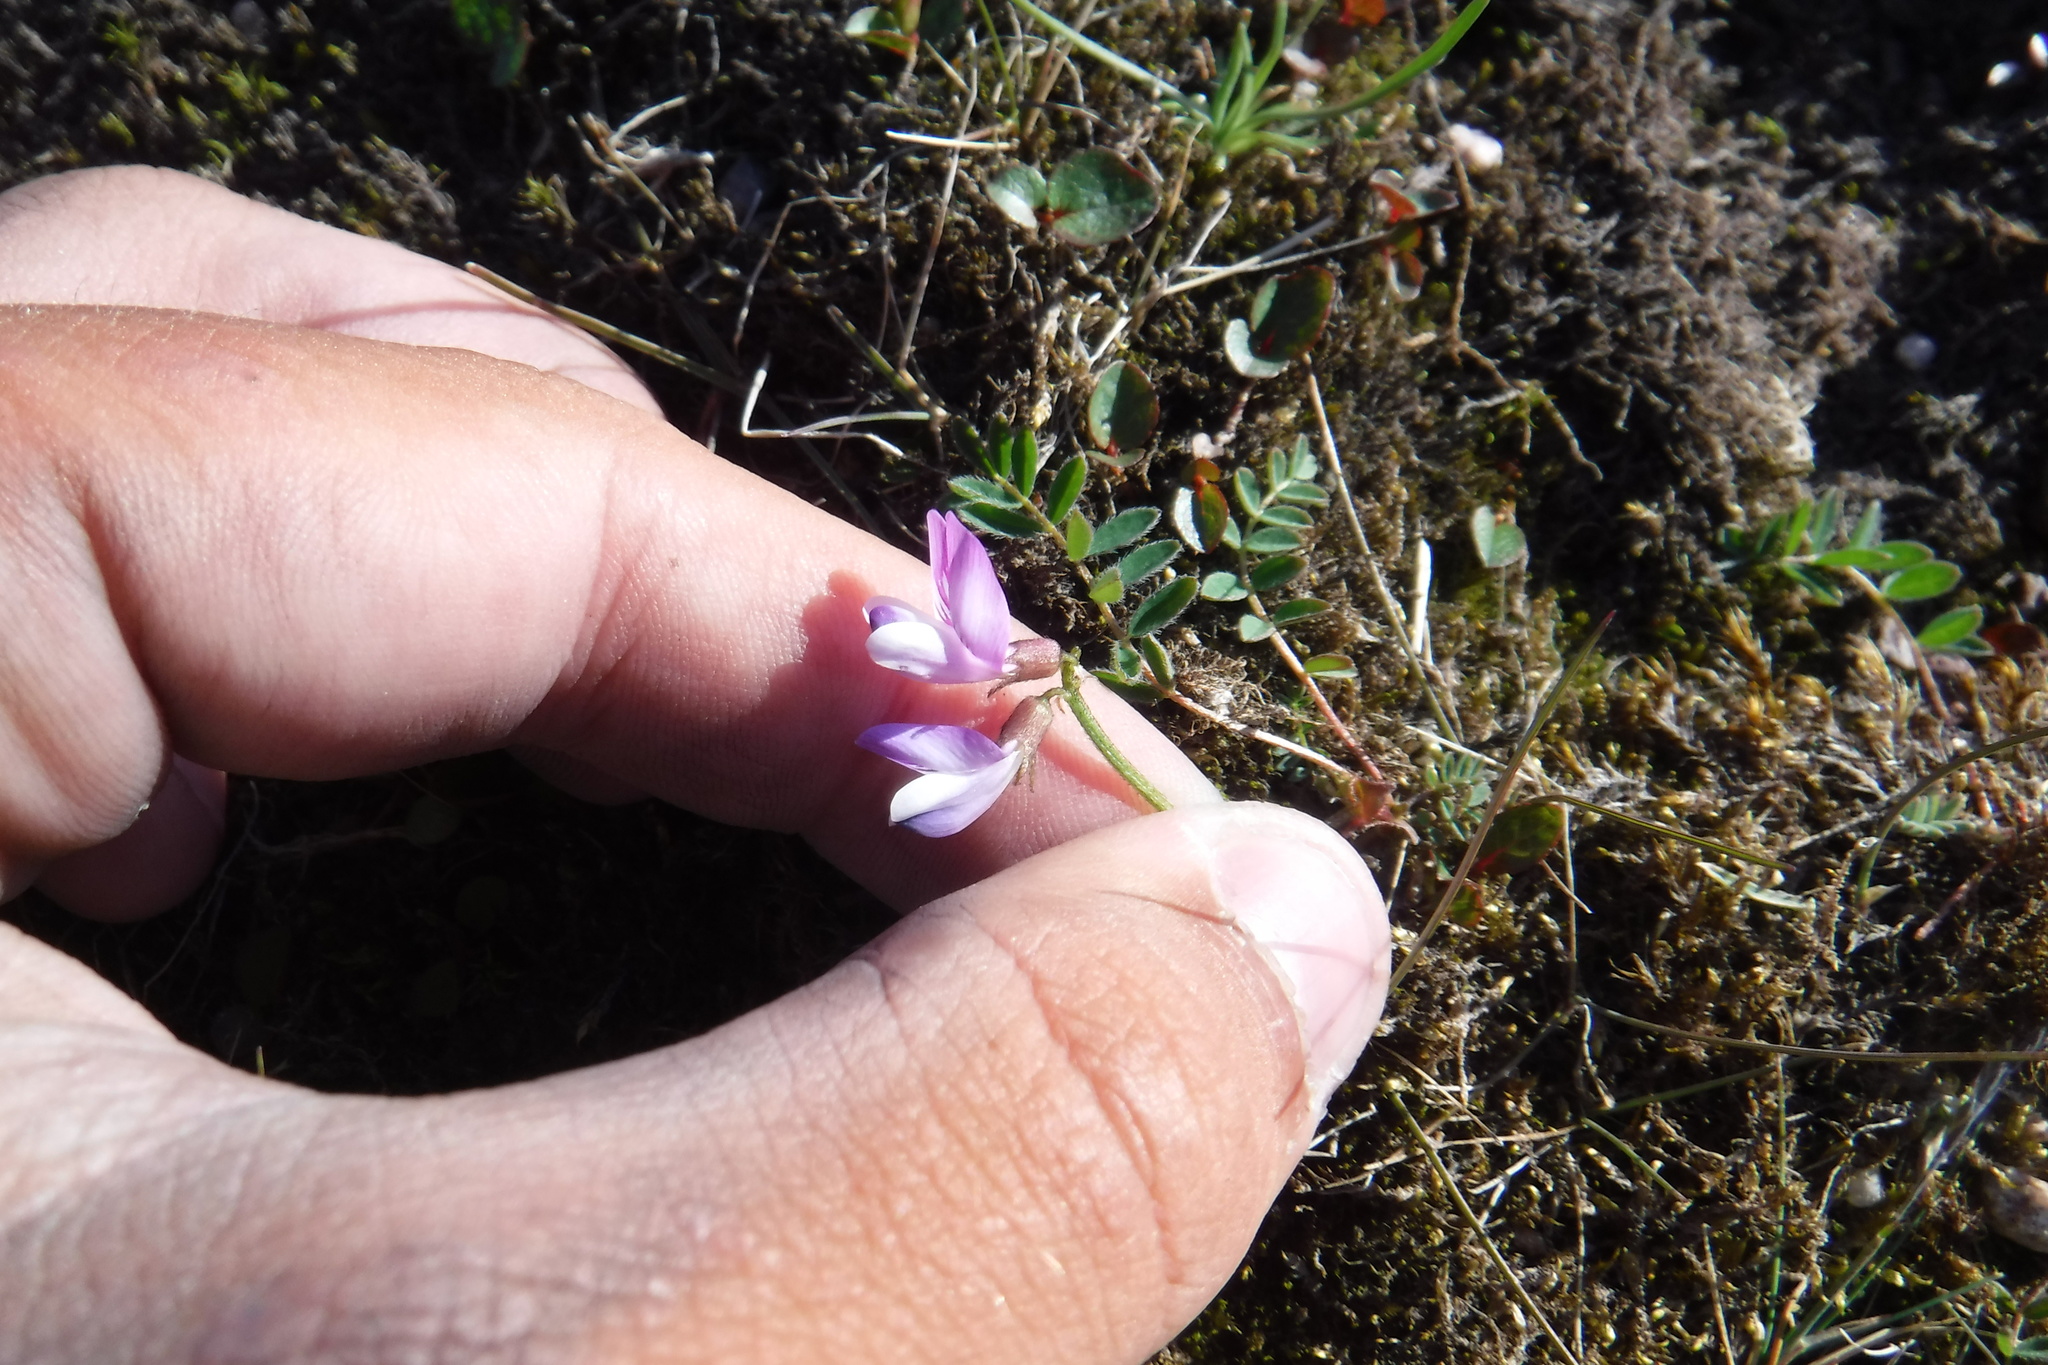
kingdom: Plantae
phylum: Tracheophyta
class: Magnoliopsida
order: Fabales
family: Fabaceae
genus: Astragalus
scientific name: Astragalus alpinus
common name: Alpine milk-vetch
